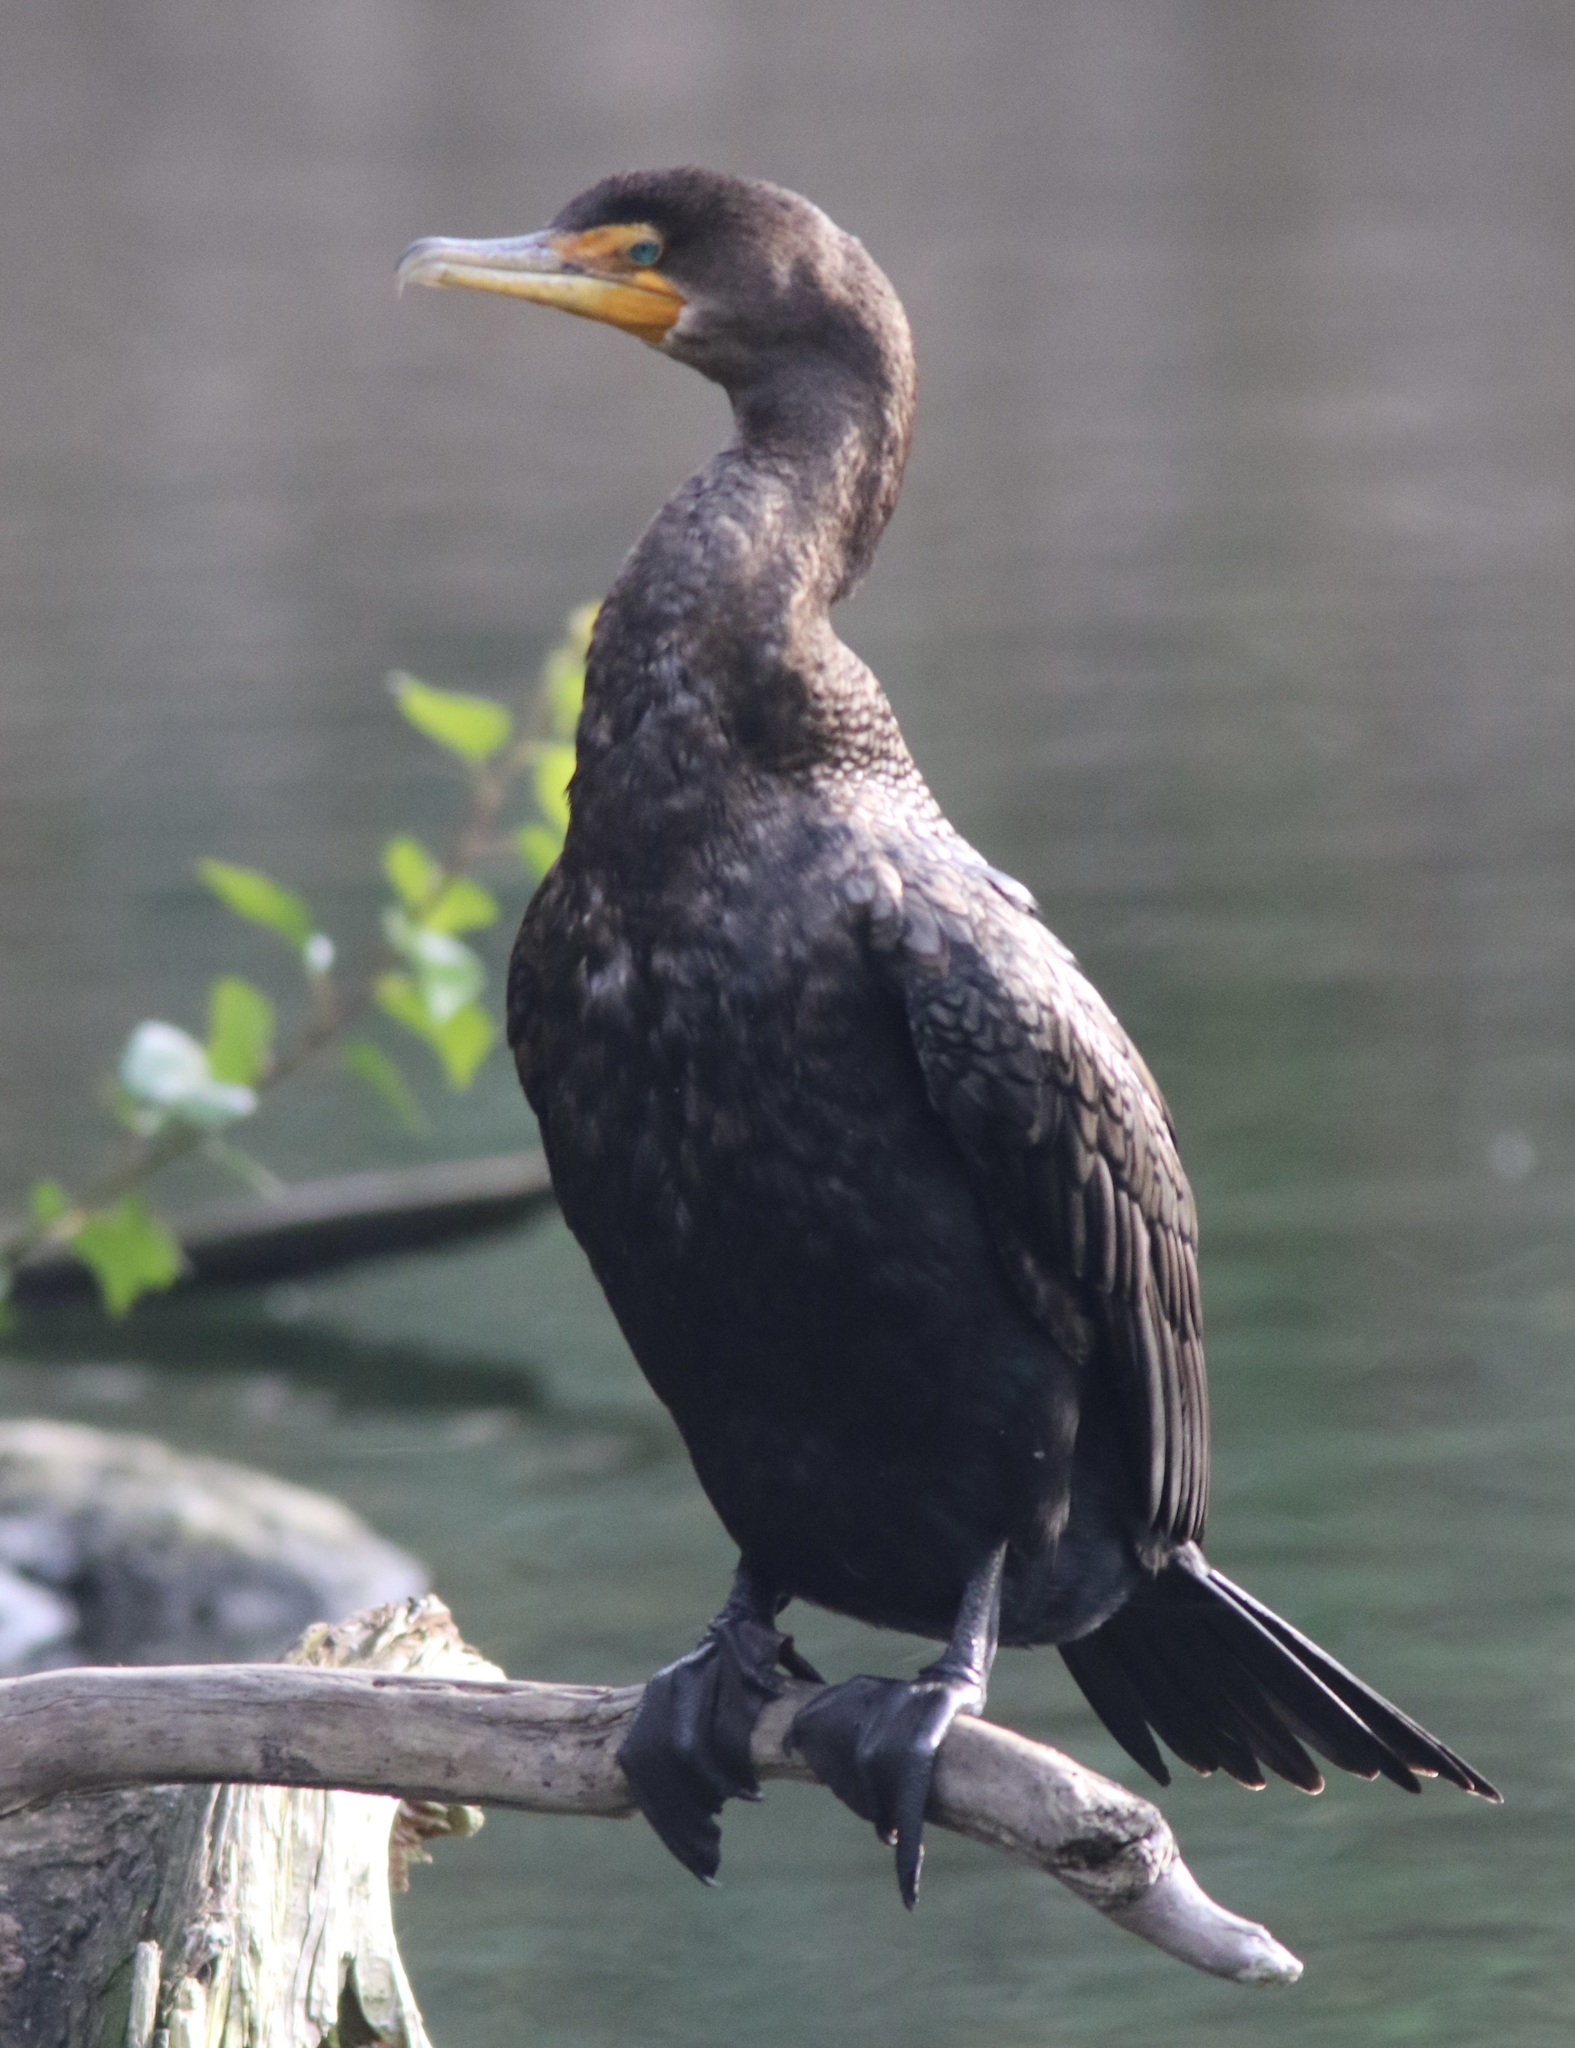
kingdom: Animalia
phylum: Chordata
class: Aves
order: Suliformes
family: Phalacrocoracidae
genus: Phalacrocorax
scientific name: Phalacrocorax auritus
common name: Double-crested cormorant
